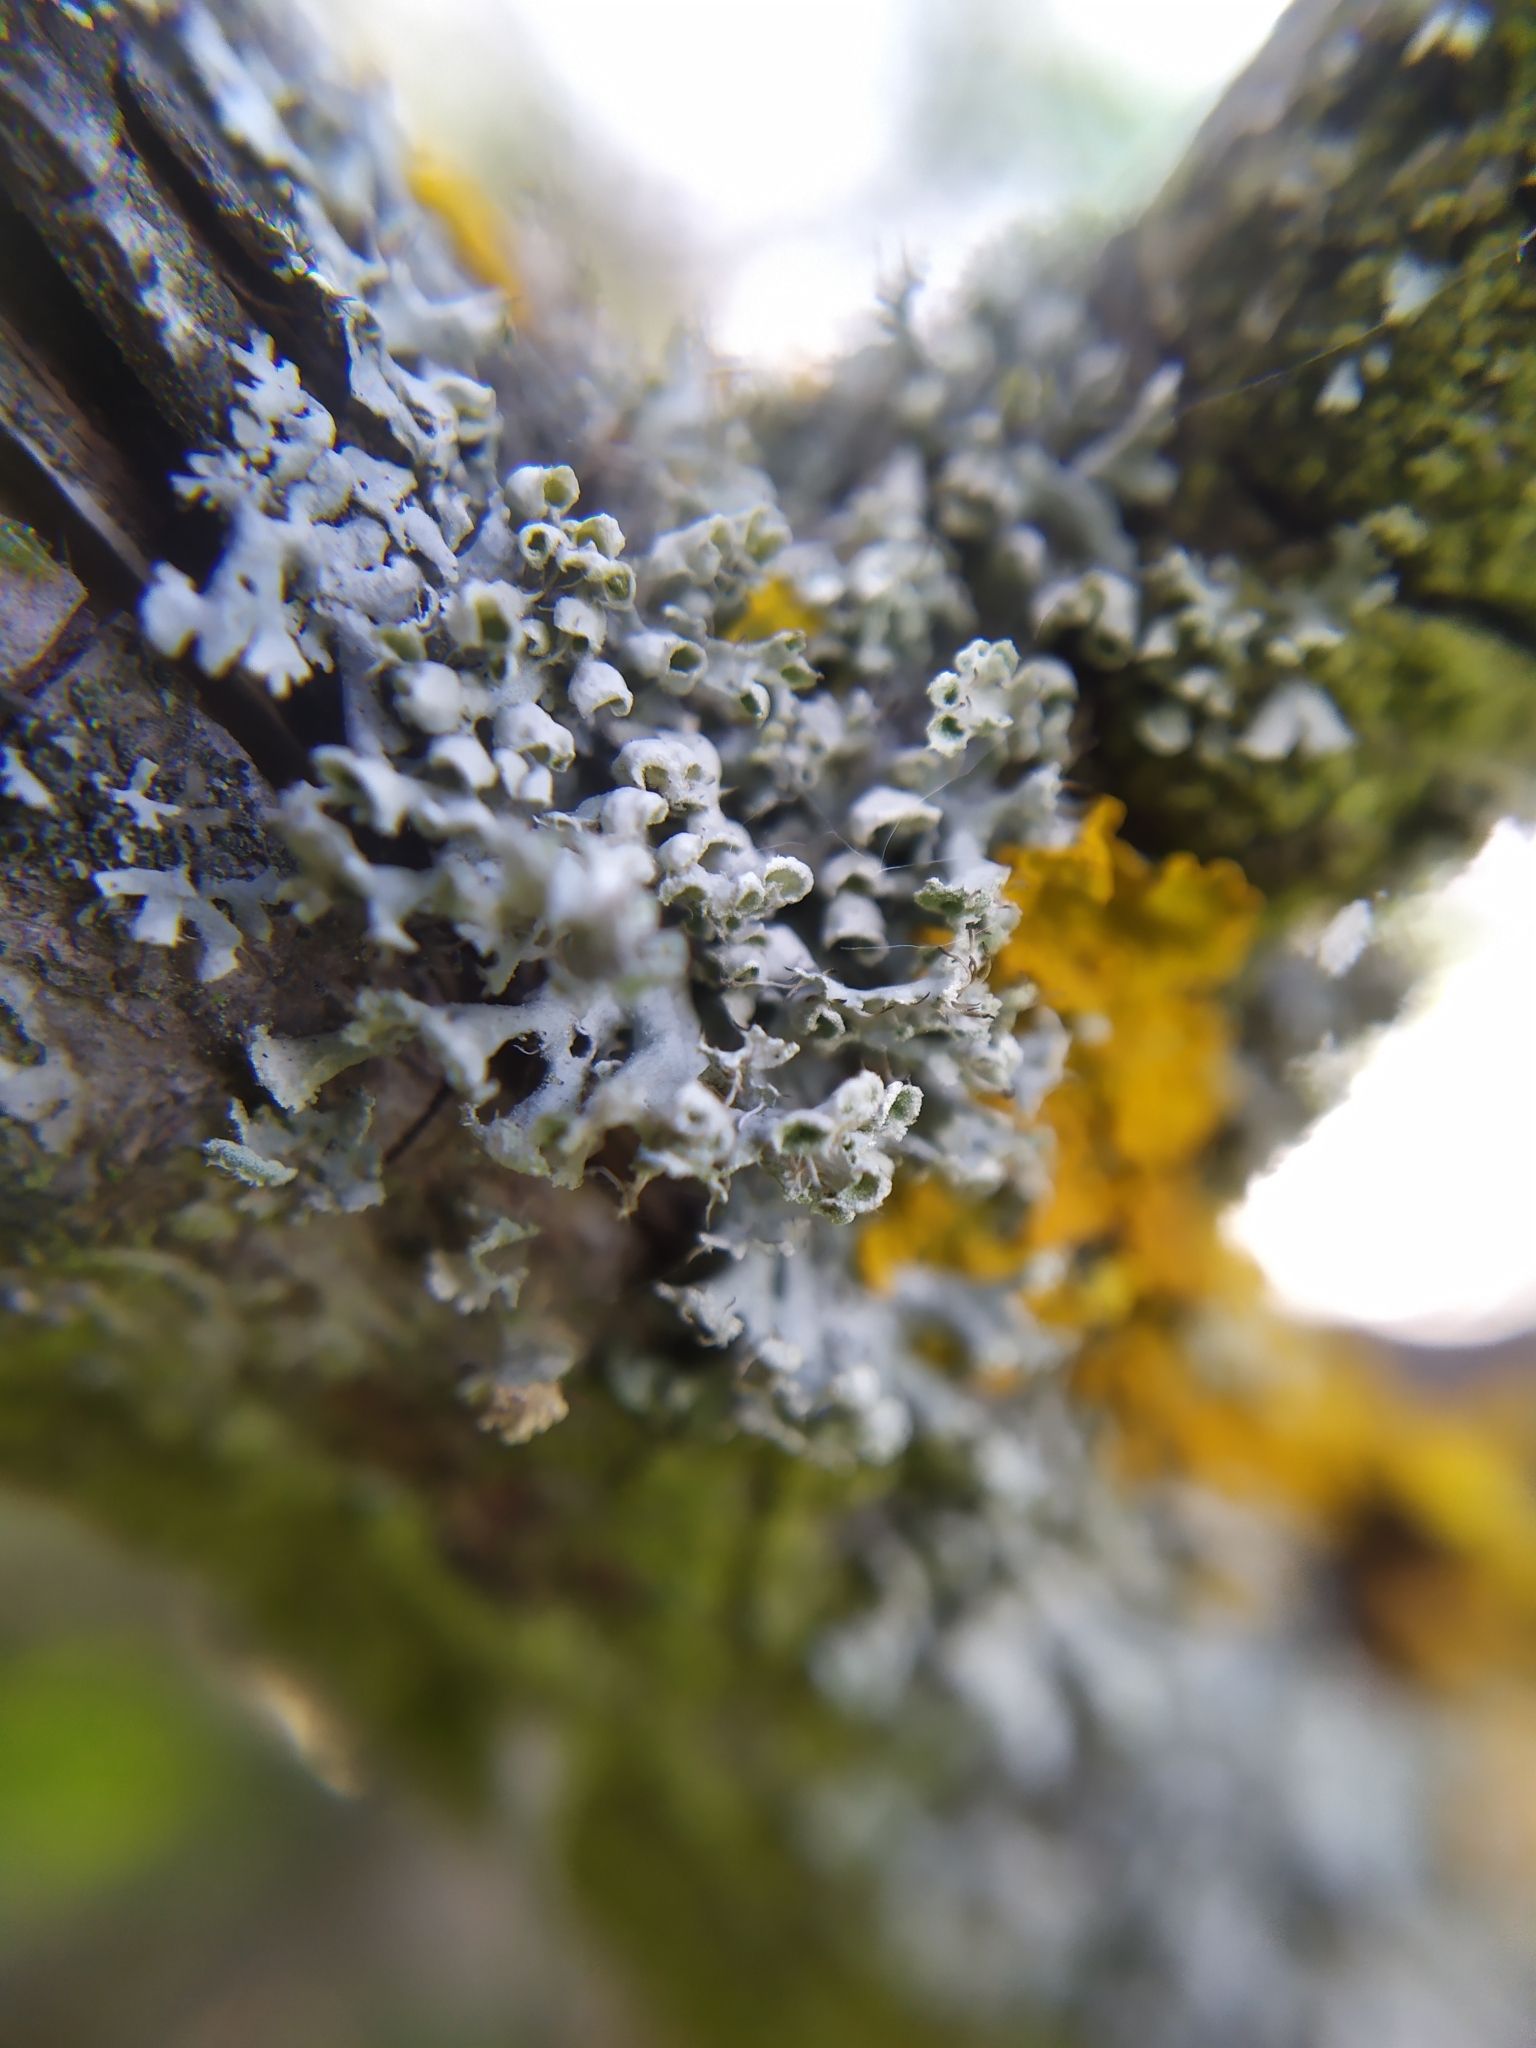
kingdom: Fungi
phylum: Ascomycota
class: Lecanoromycetes
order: Caliciales
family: Physciaceae
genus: Physcia
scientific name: Physcia adscendens
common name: Hooded rosette lichen
